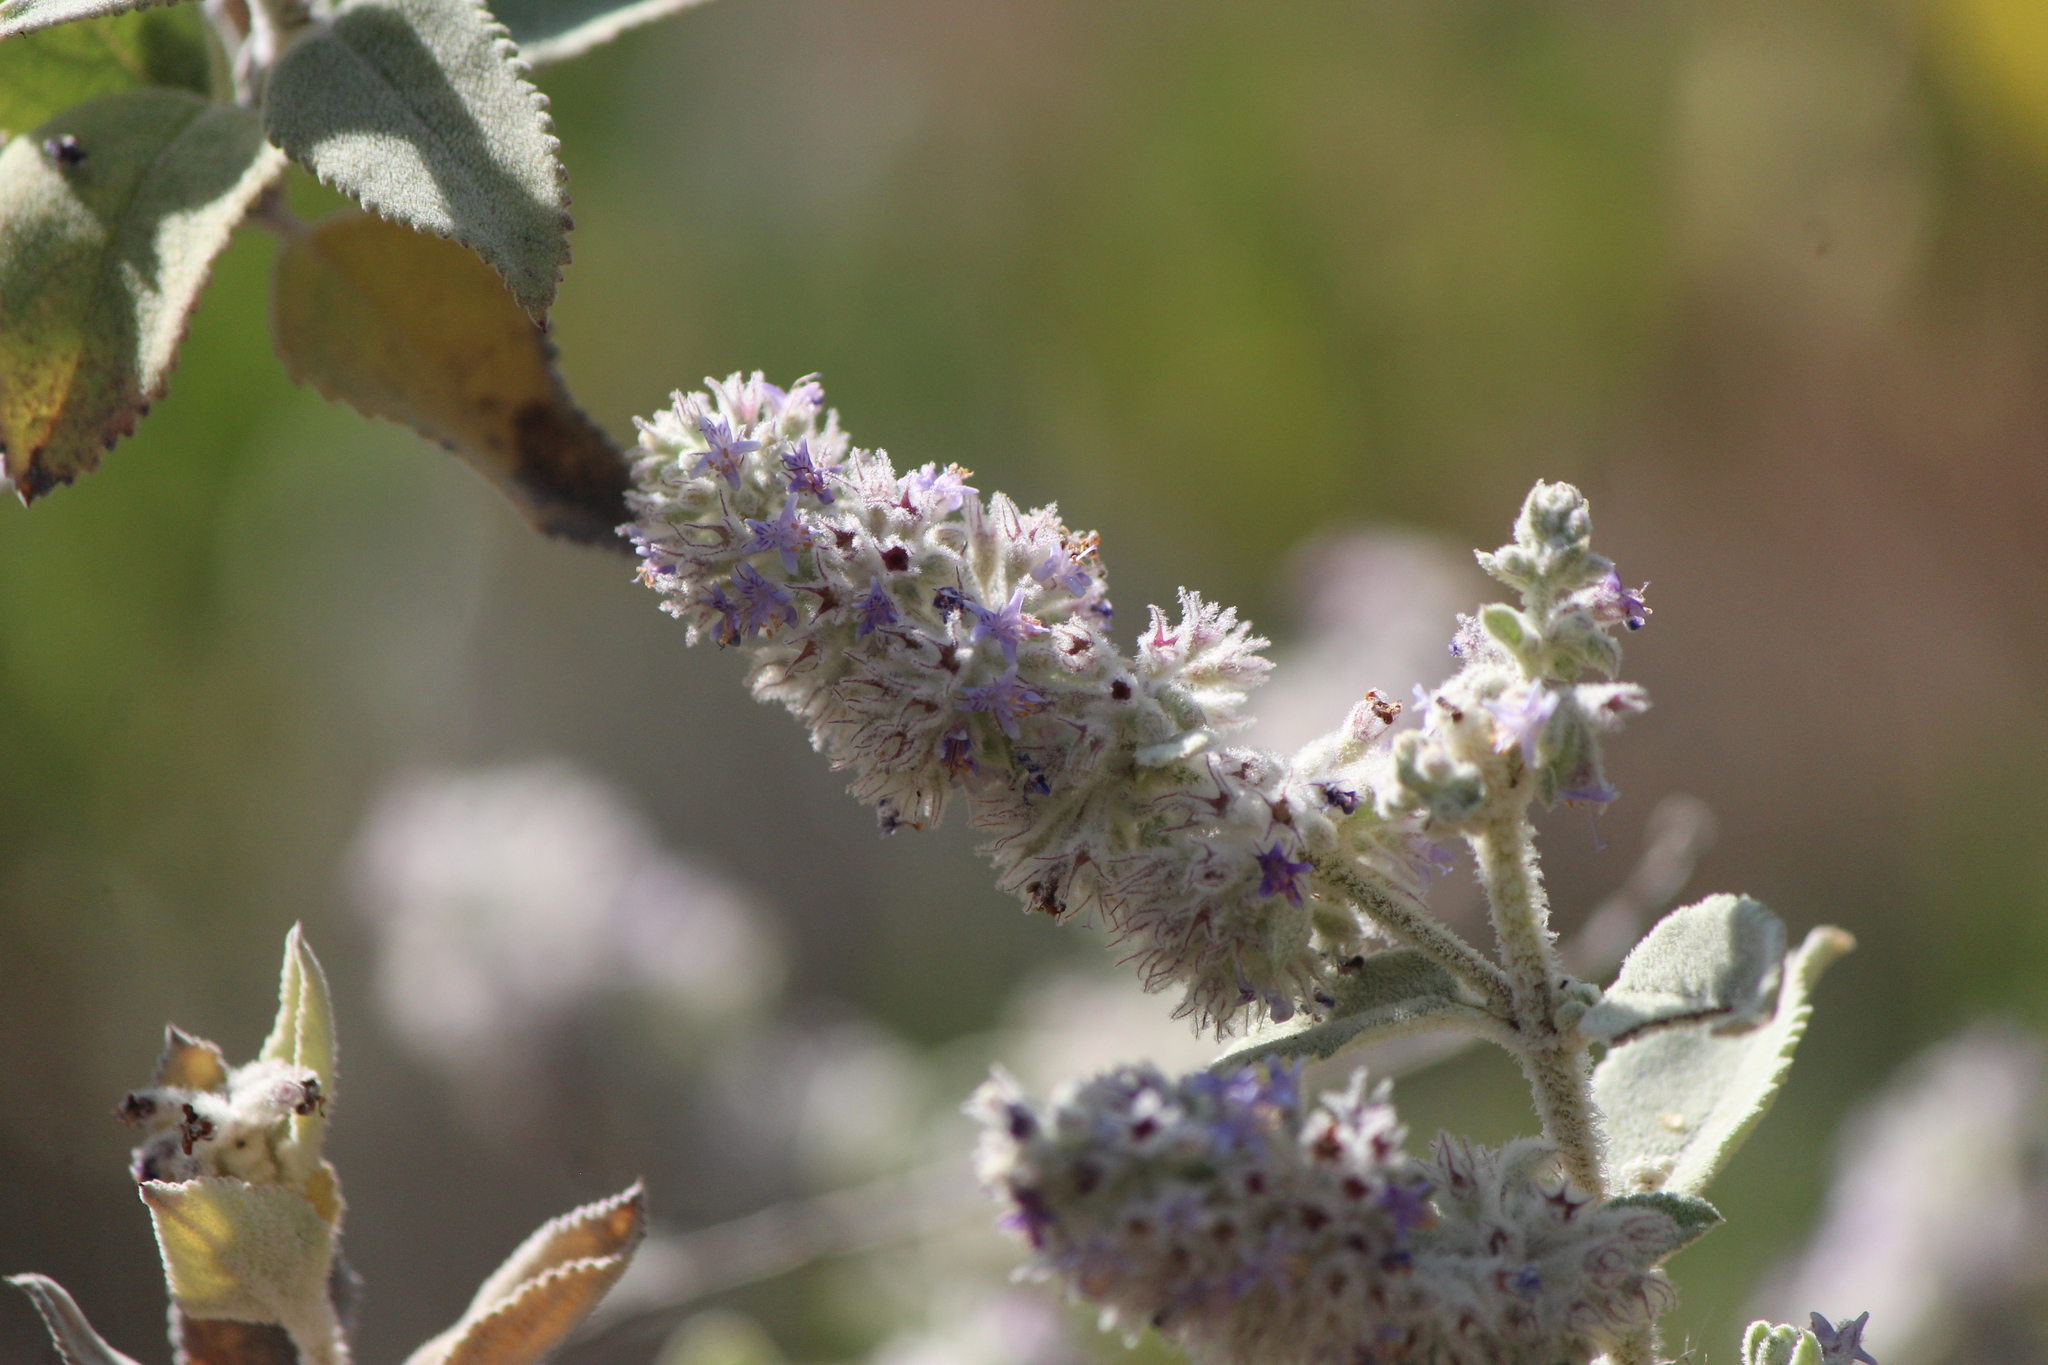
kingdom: Plantae
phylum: Tracheophyta
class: Magnoliopsida
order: Lamiales
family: Lamiaceae
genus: Condea
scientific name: Condea albida
